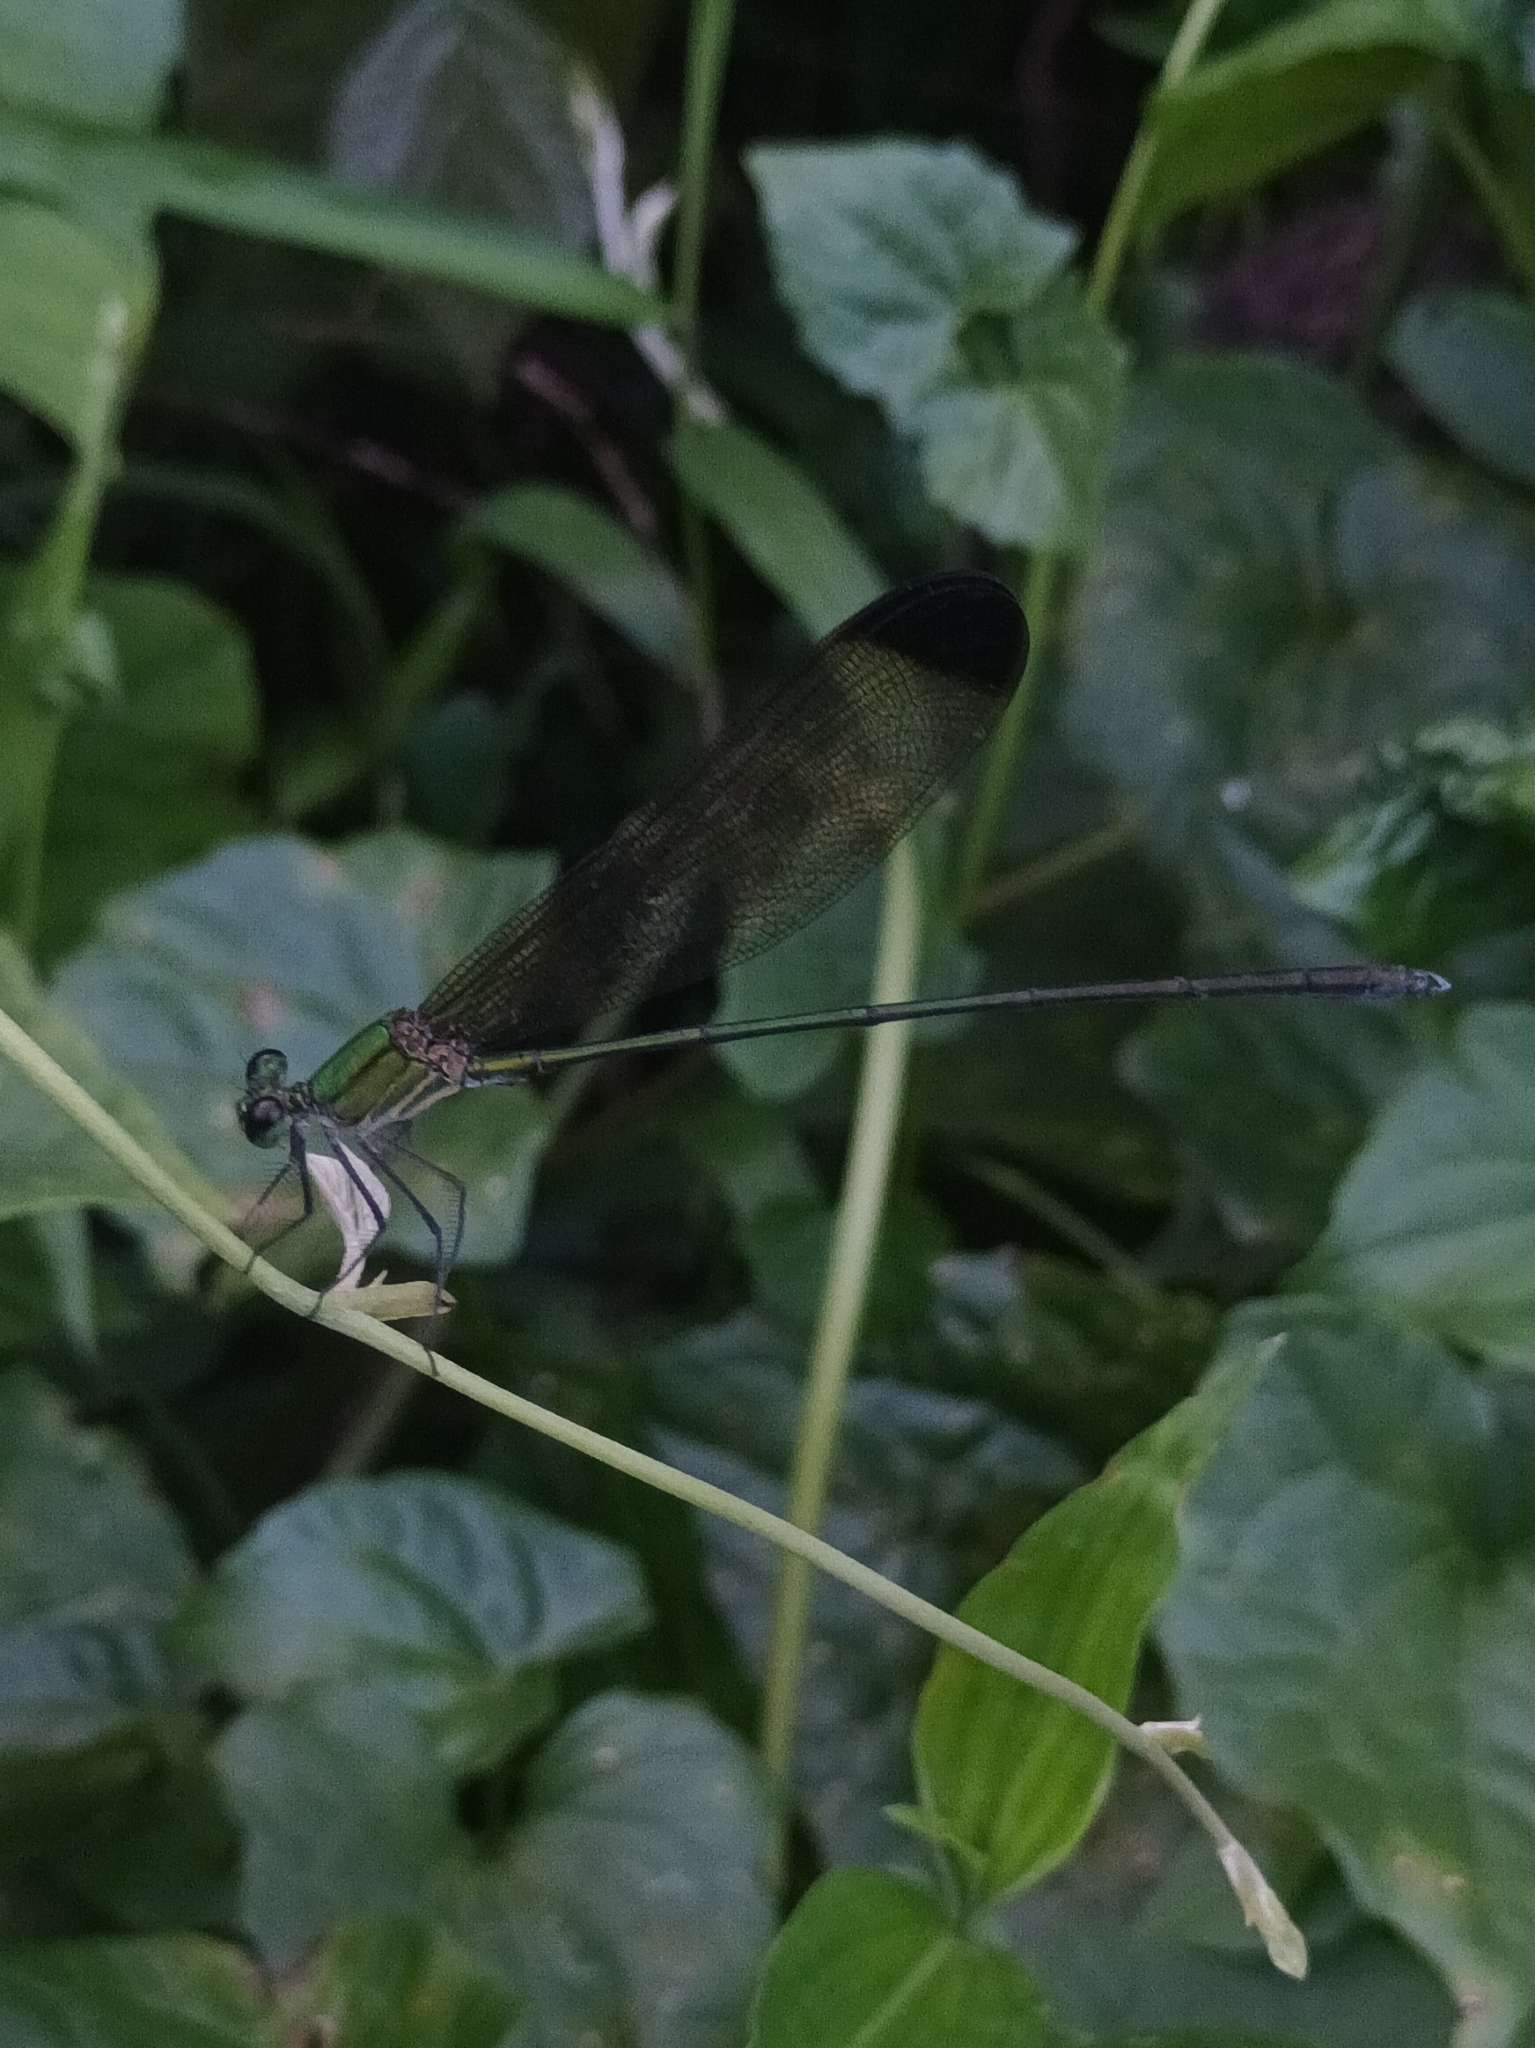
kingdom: Animalia
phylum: Arthropoda
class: Insecta
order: Odonata
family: Calopterygidae
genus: Vestalis
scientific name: Vestalis apicalis
